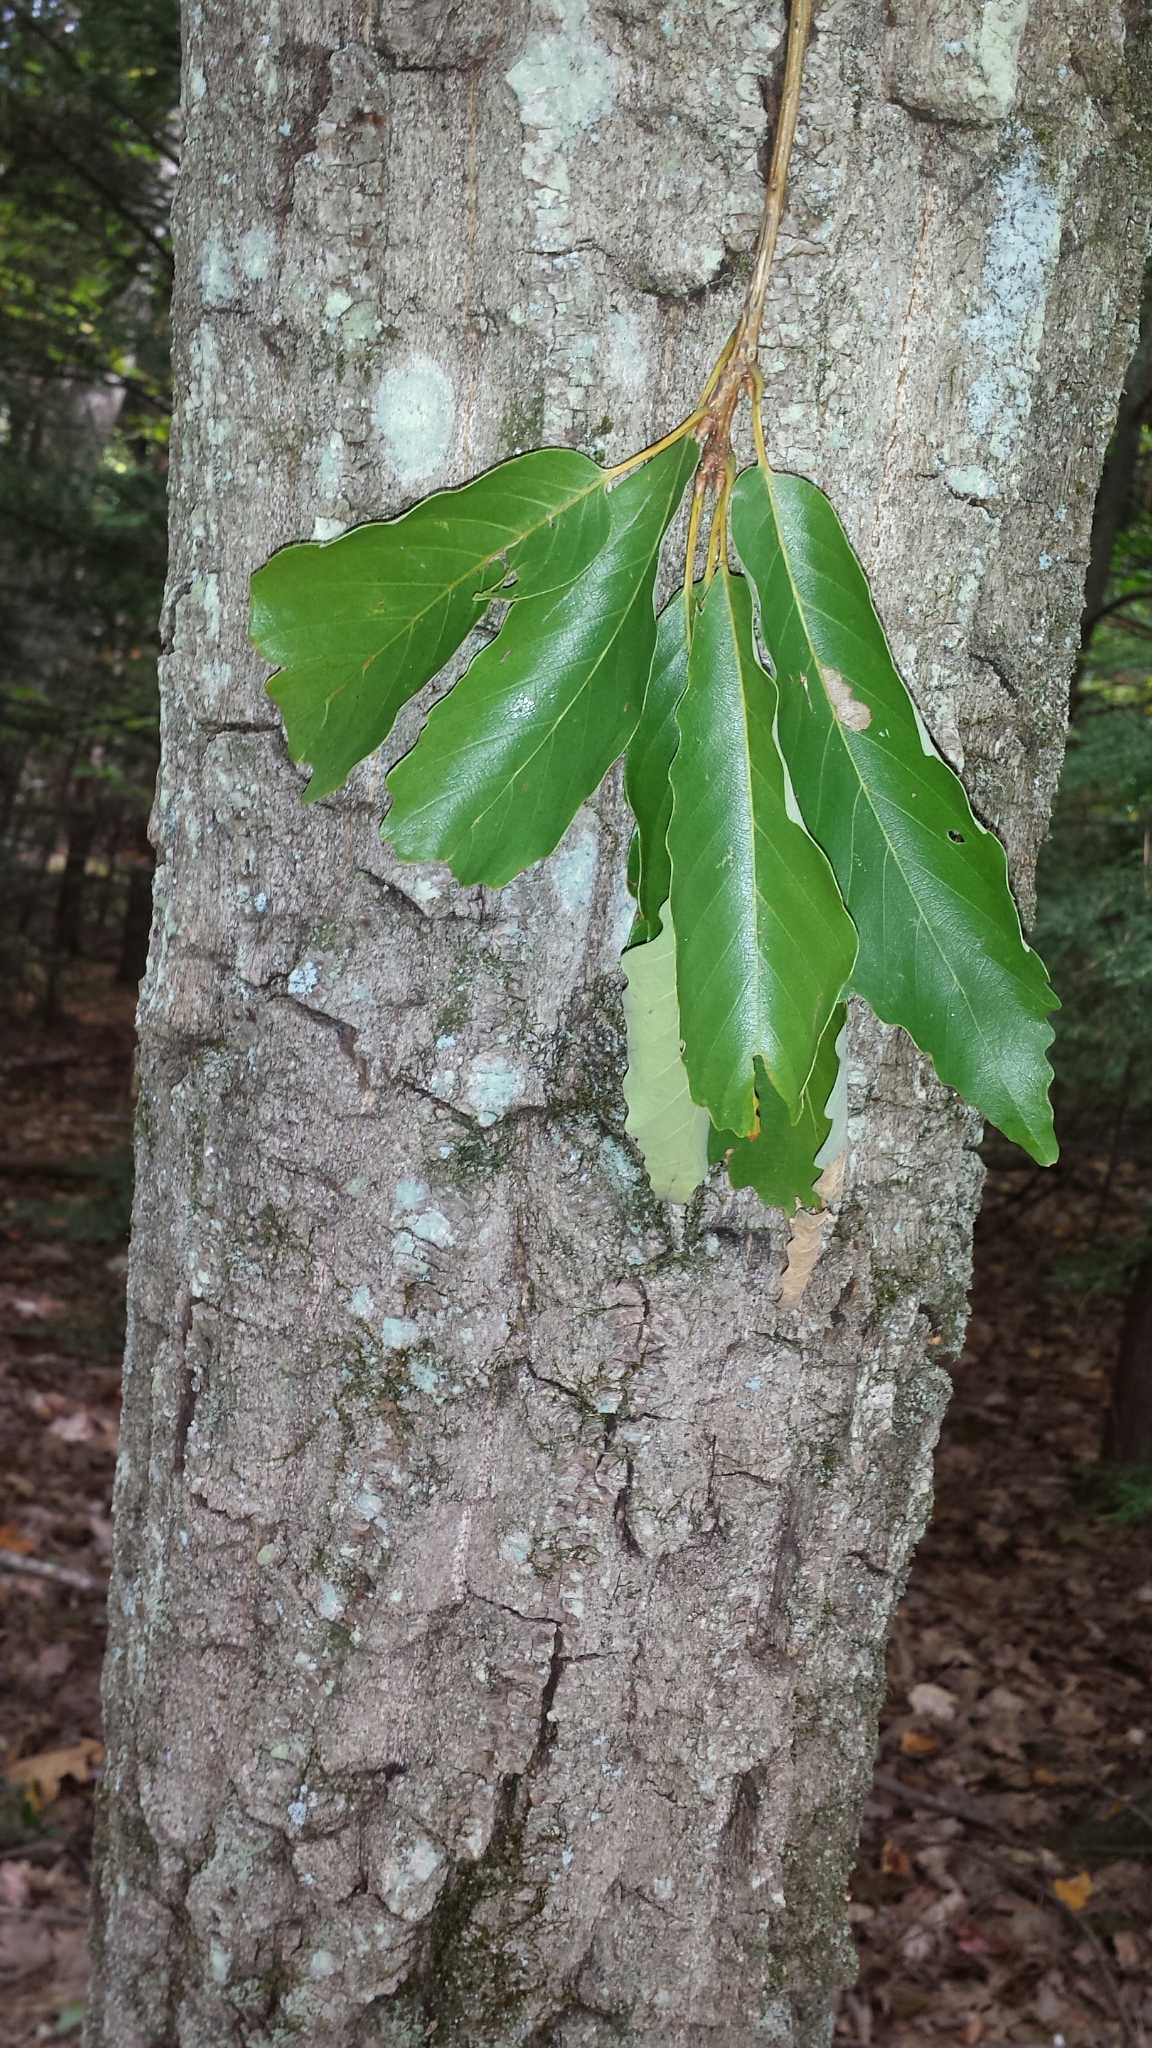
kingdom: Plantae
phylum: Tracheophyta
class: Magnoliopsida
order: Fagales
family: Fagaceae
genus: Quercus
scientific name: Quercus montana
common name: Chestnut oak
